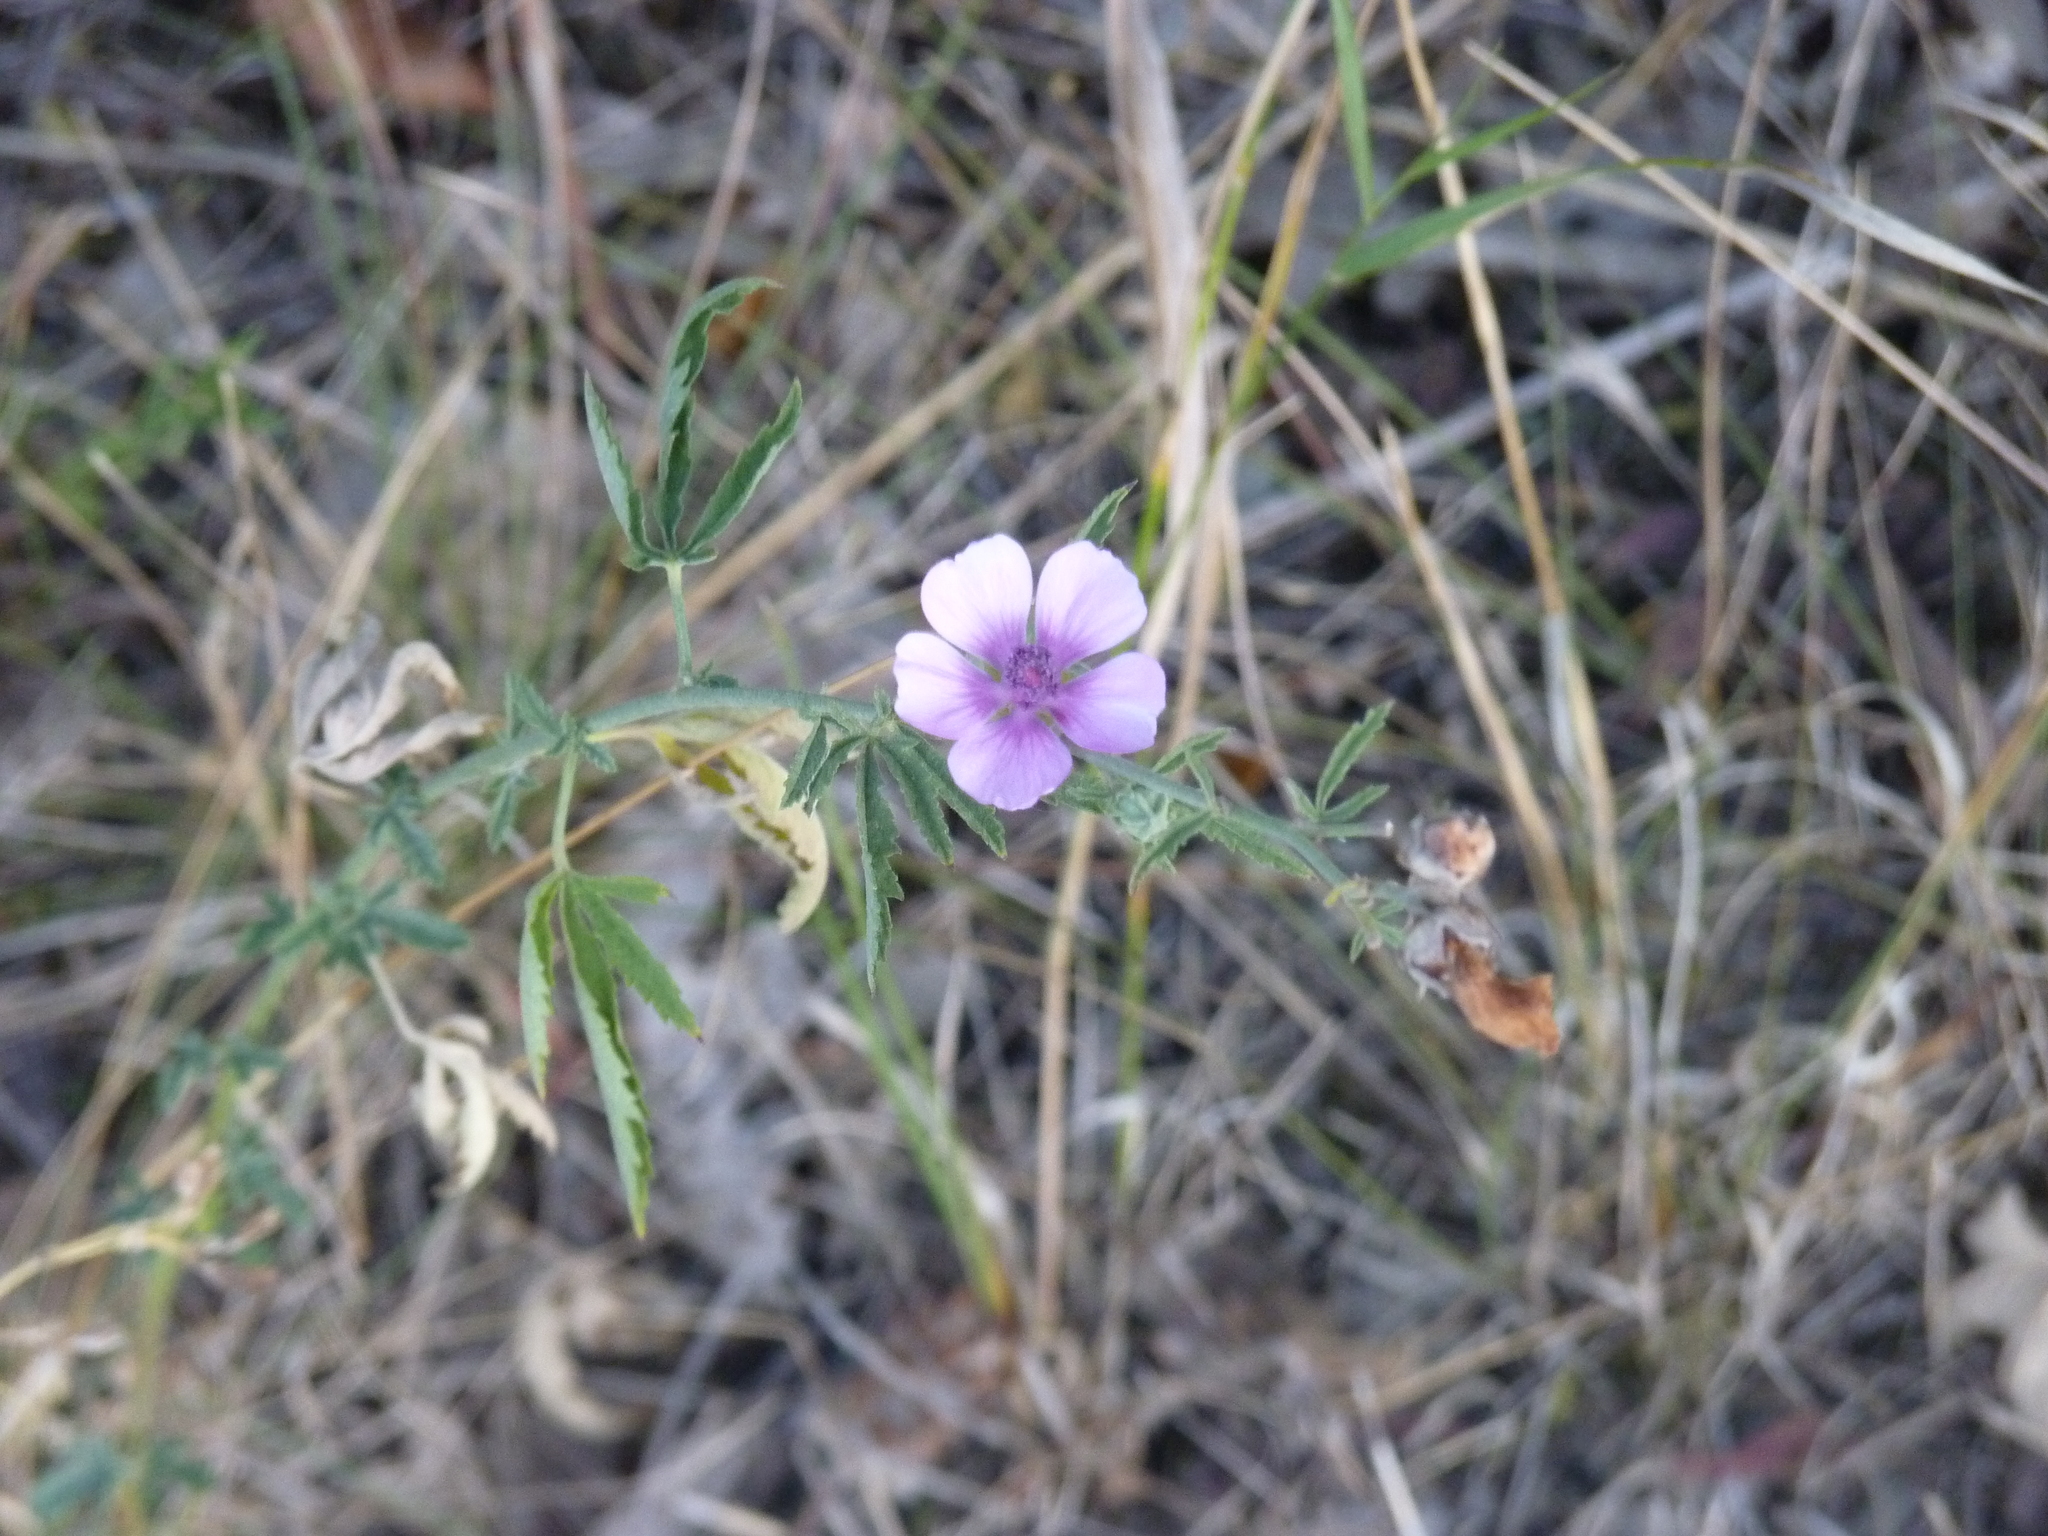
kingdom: Plantae
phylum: Tracheophyta
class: Magnoliopsida
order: Malvales
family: Malvaceae
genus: Althaea
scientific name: Althaea cannabina
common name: Palm-leaf marshmallow
